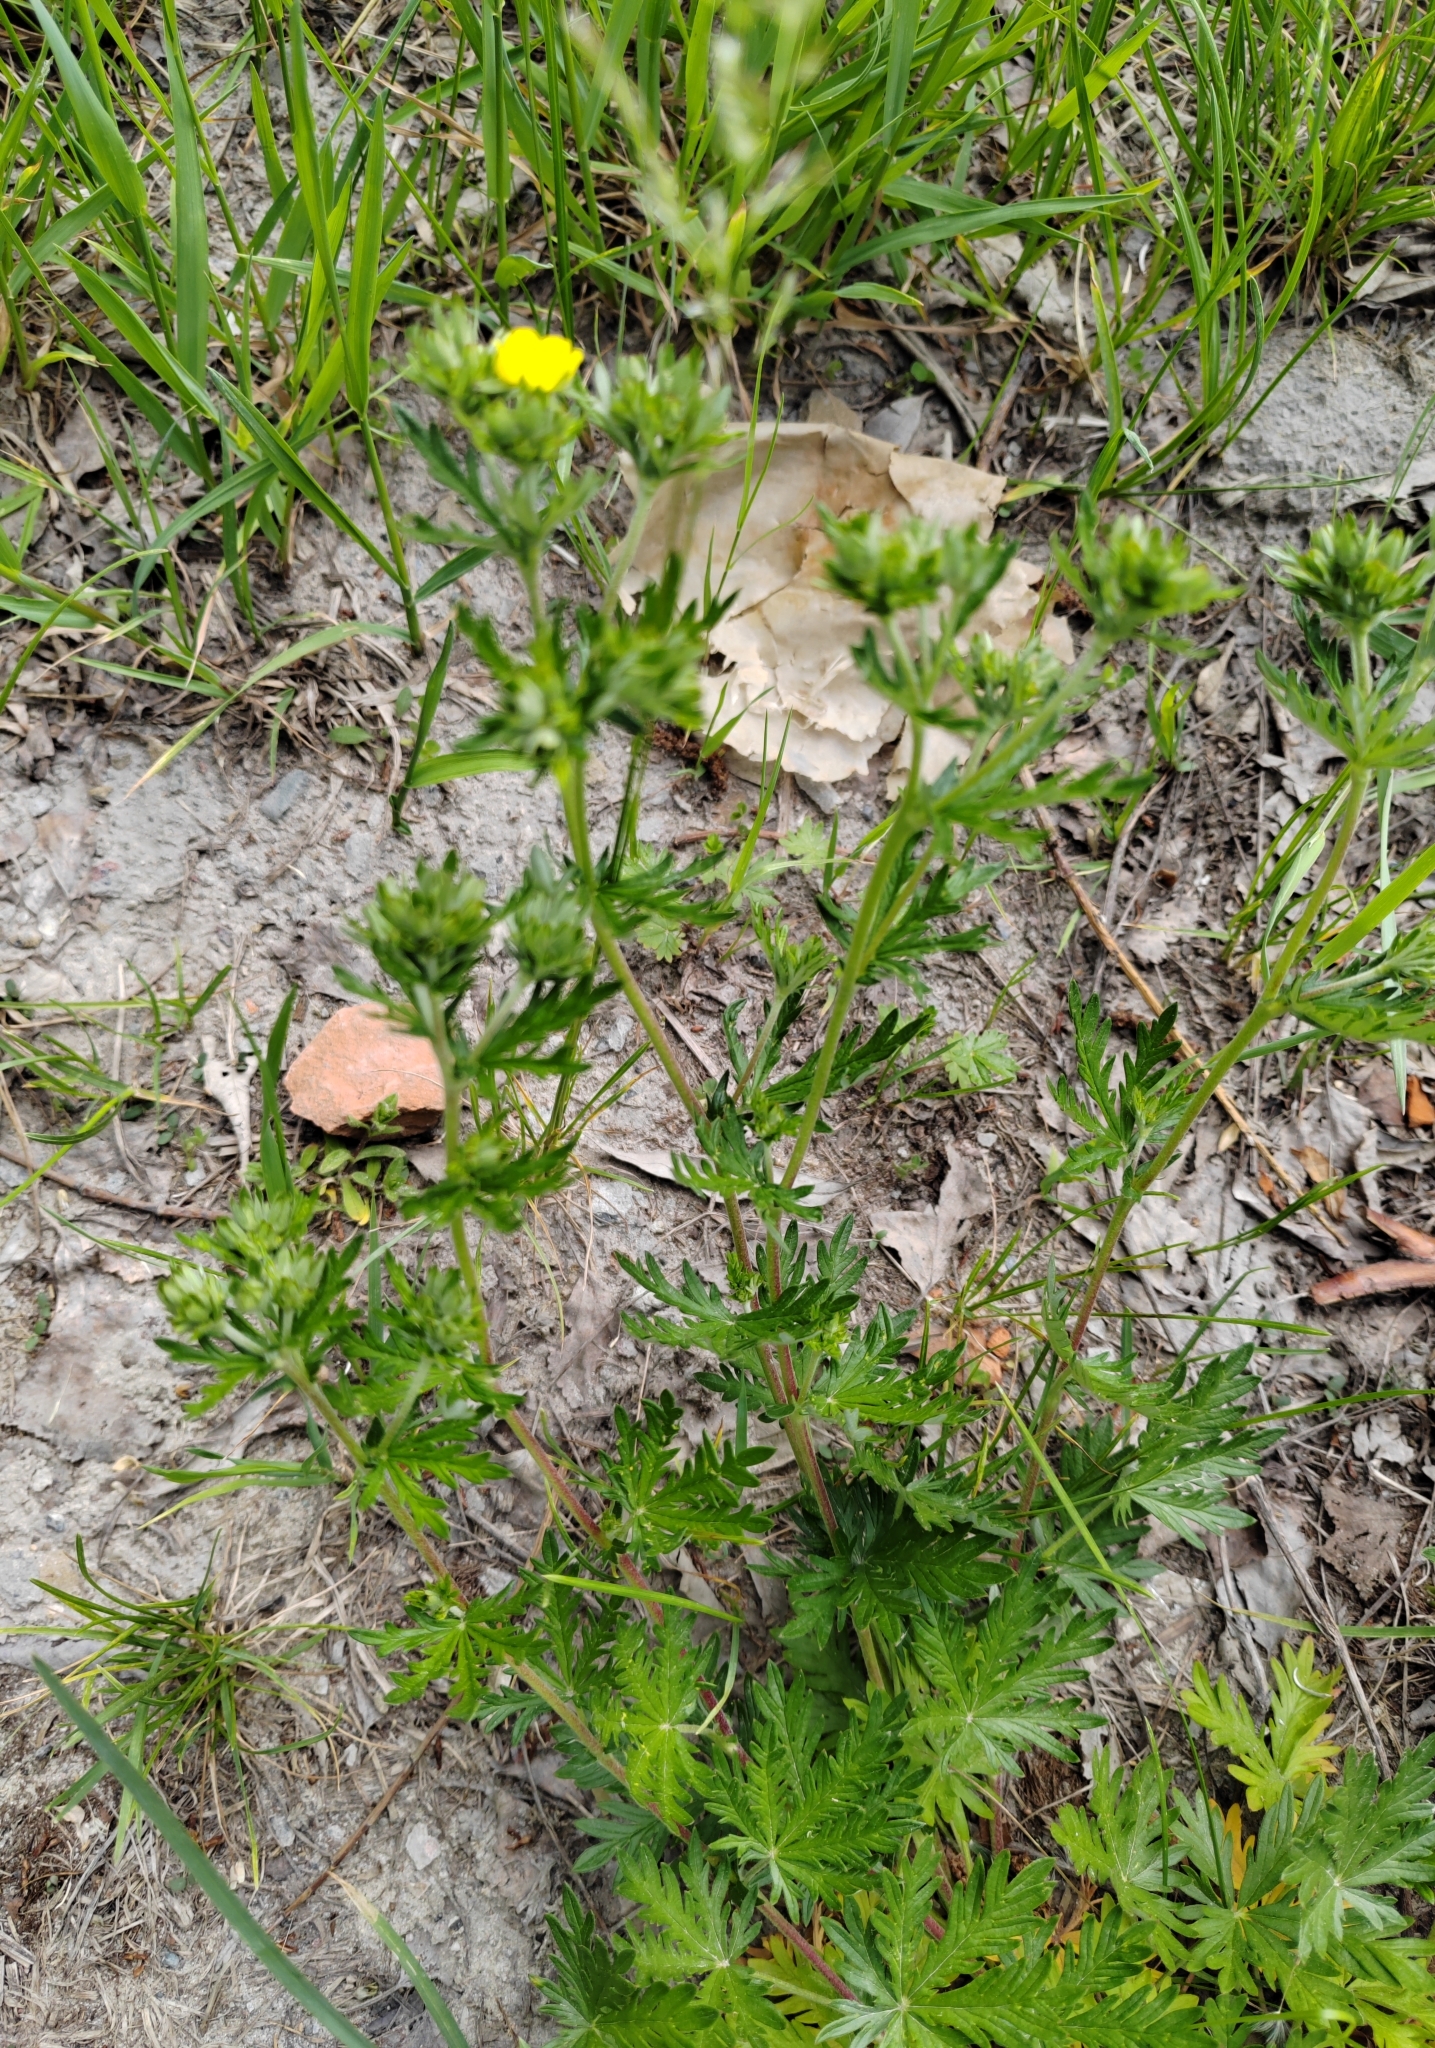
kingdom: Plantae
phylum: Tracheophyta
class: Magnoliopsida
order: Rosales
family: Rosaceae
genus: Potentilla
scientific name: Potentilla argentea
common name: Hoary cinquefoil
